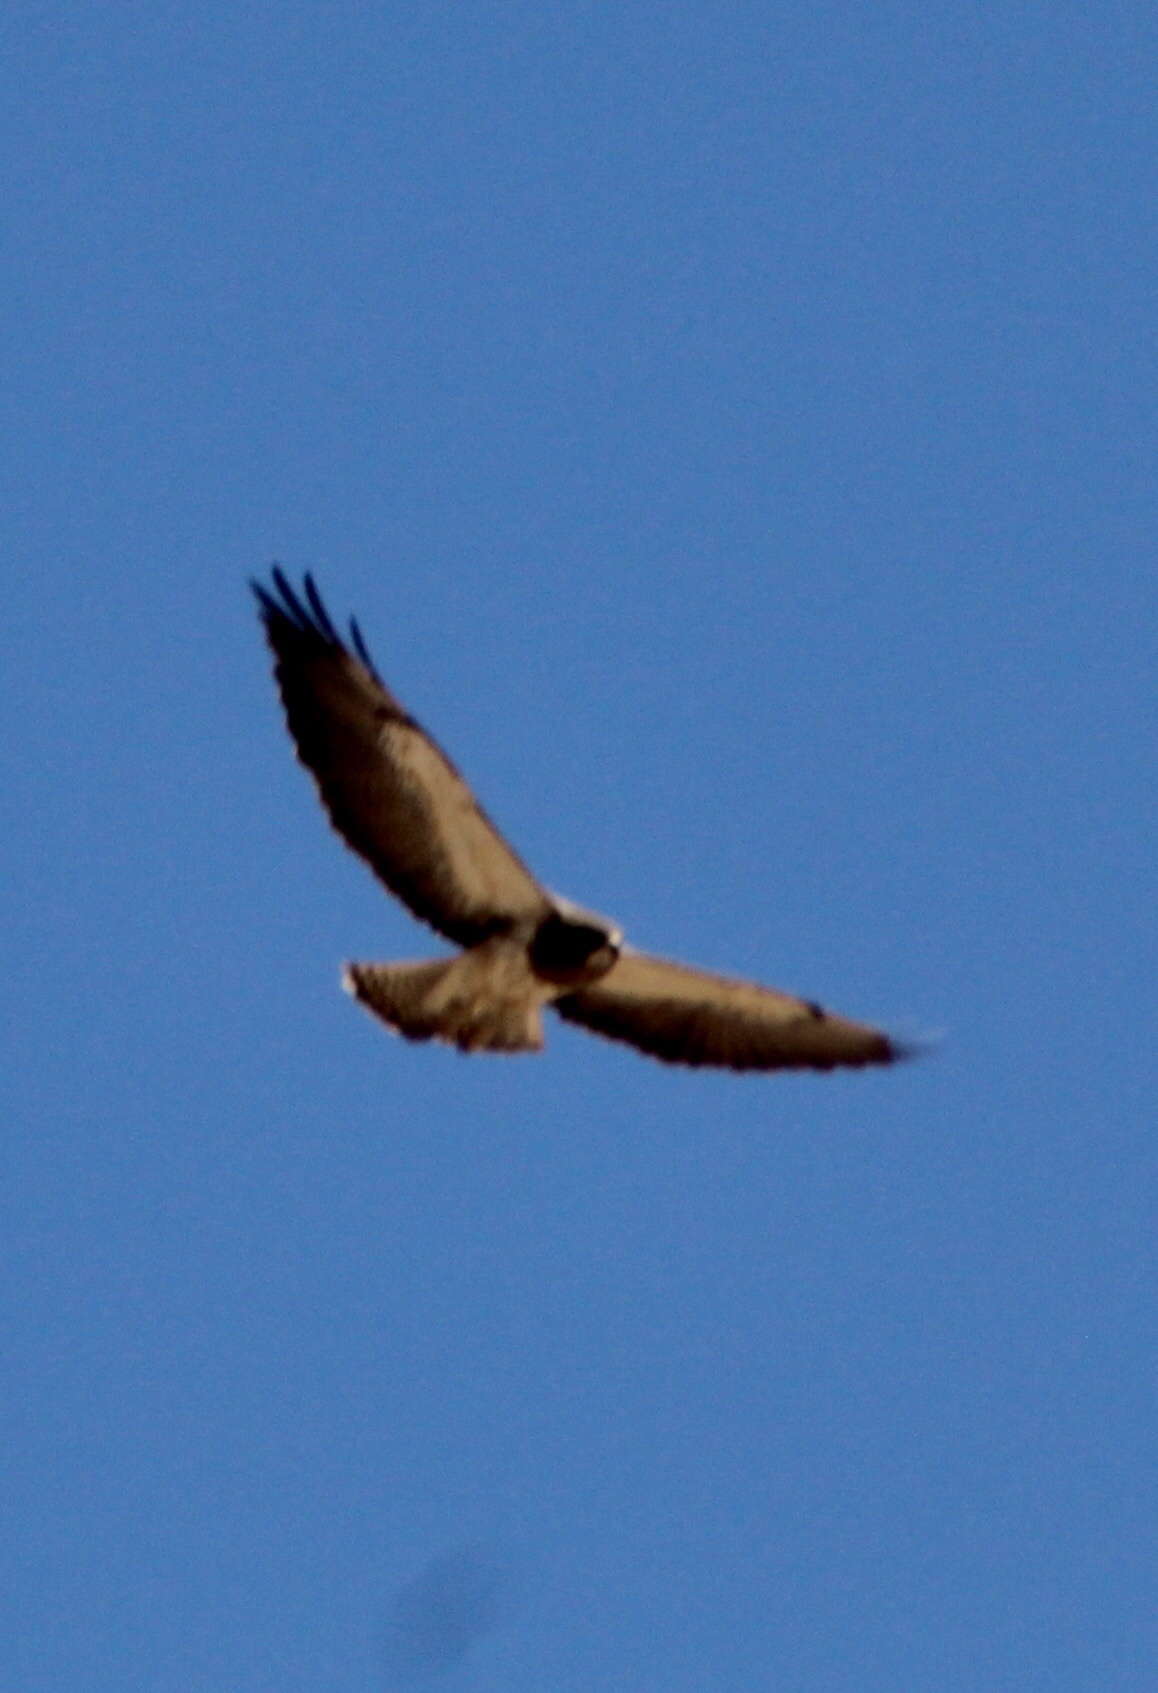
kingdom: Animalia
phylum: Chordata
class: Aves
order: Accipitriformes
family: Accipitridae
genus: Buteo
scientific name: Buteo swainsoni
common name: Swainson's hawk
